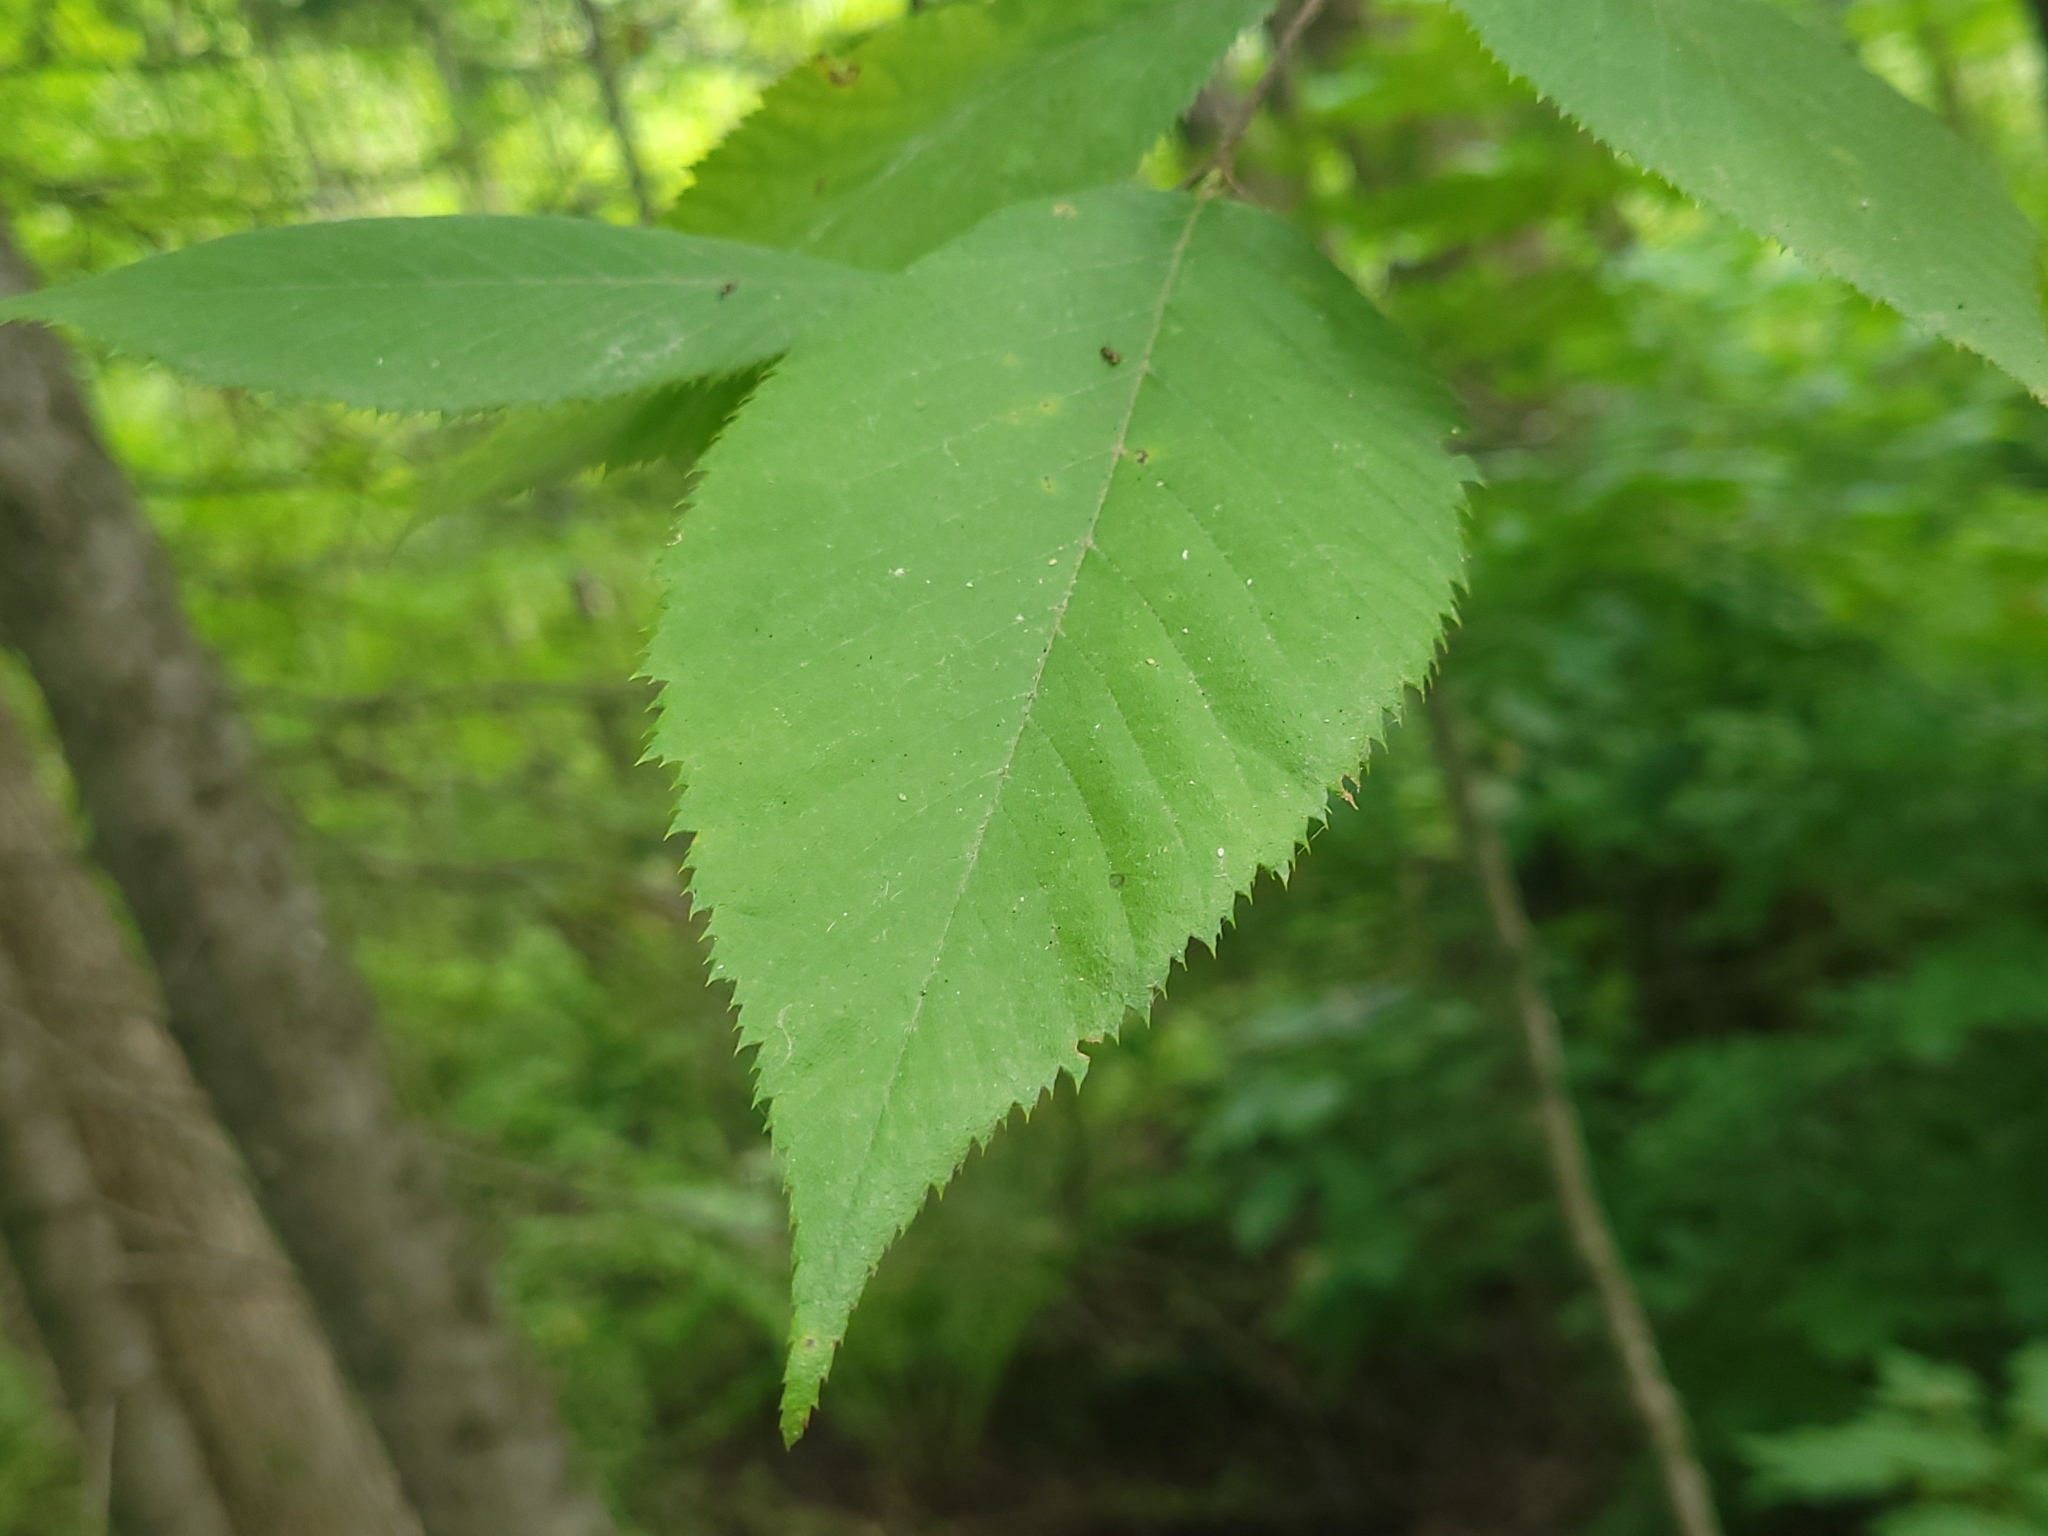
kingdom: Plantae
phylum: Tracheophyta
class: Magnoliopsida
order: Fagales
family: Betulaceae
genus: Ostrya
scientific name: Ostrya virginiana
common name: Ironwood
